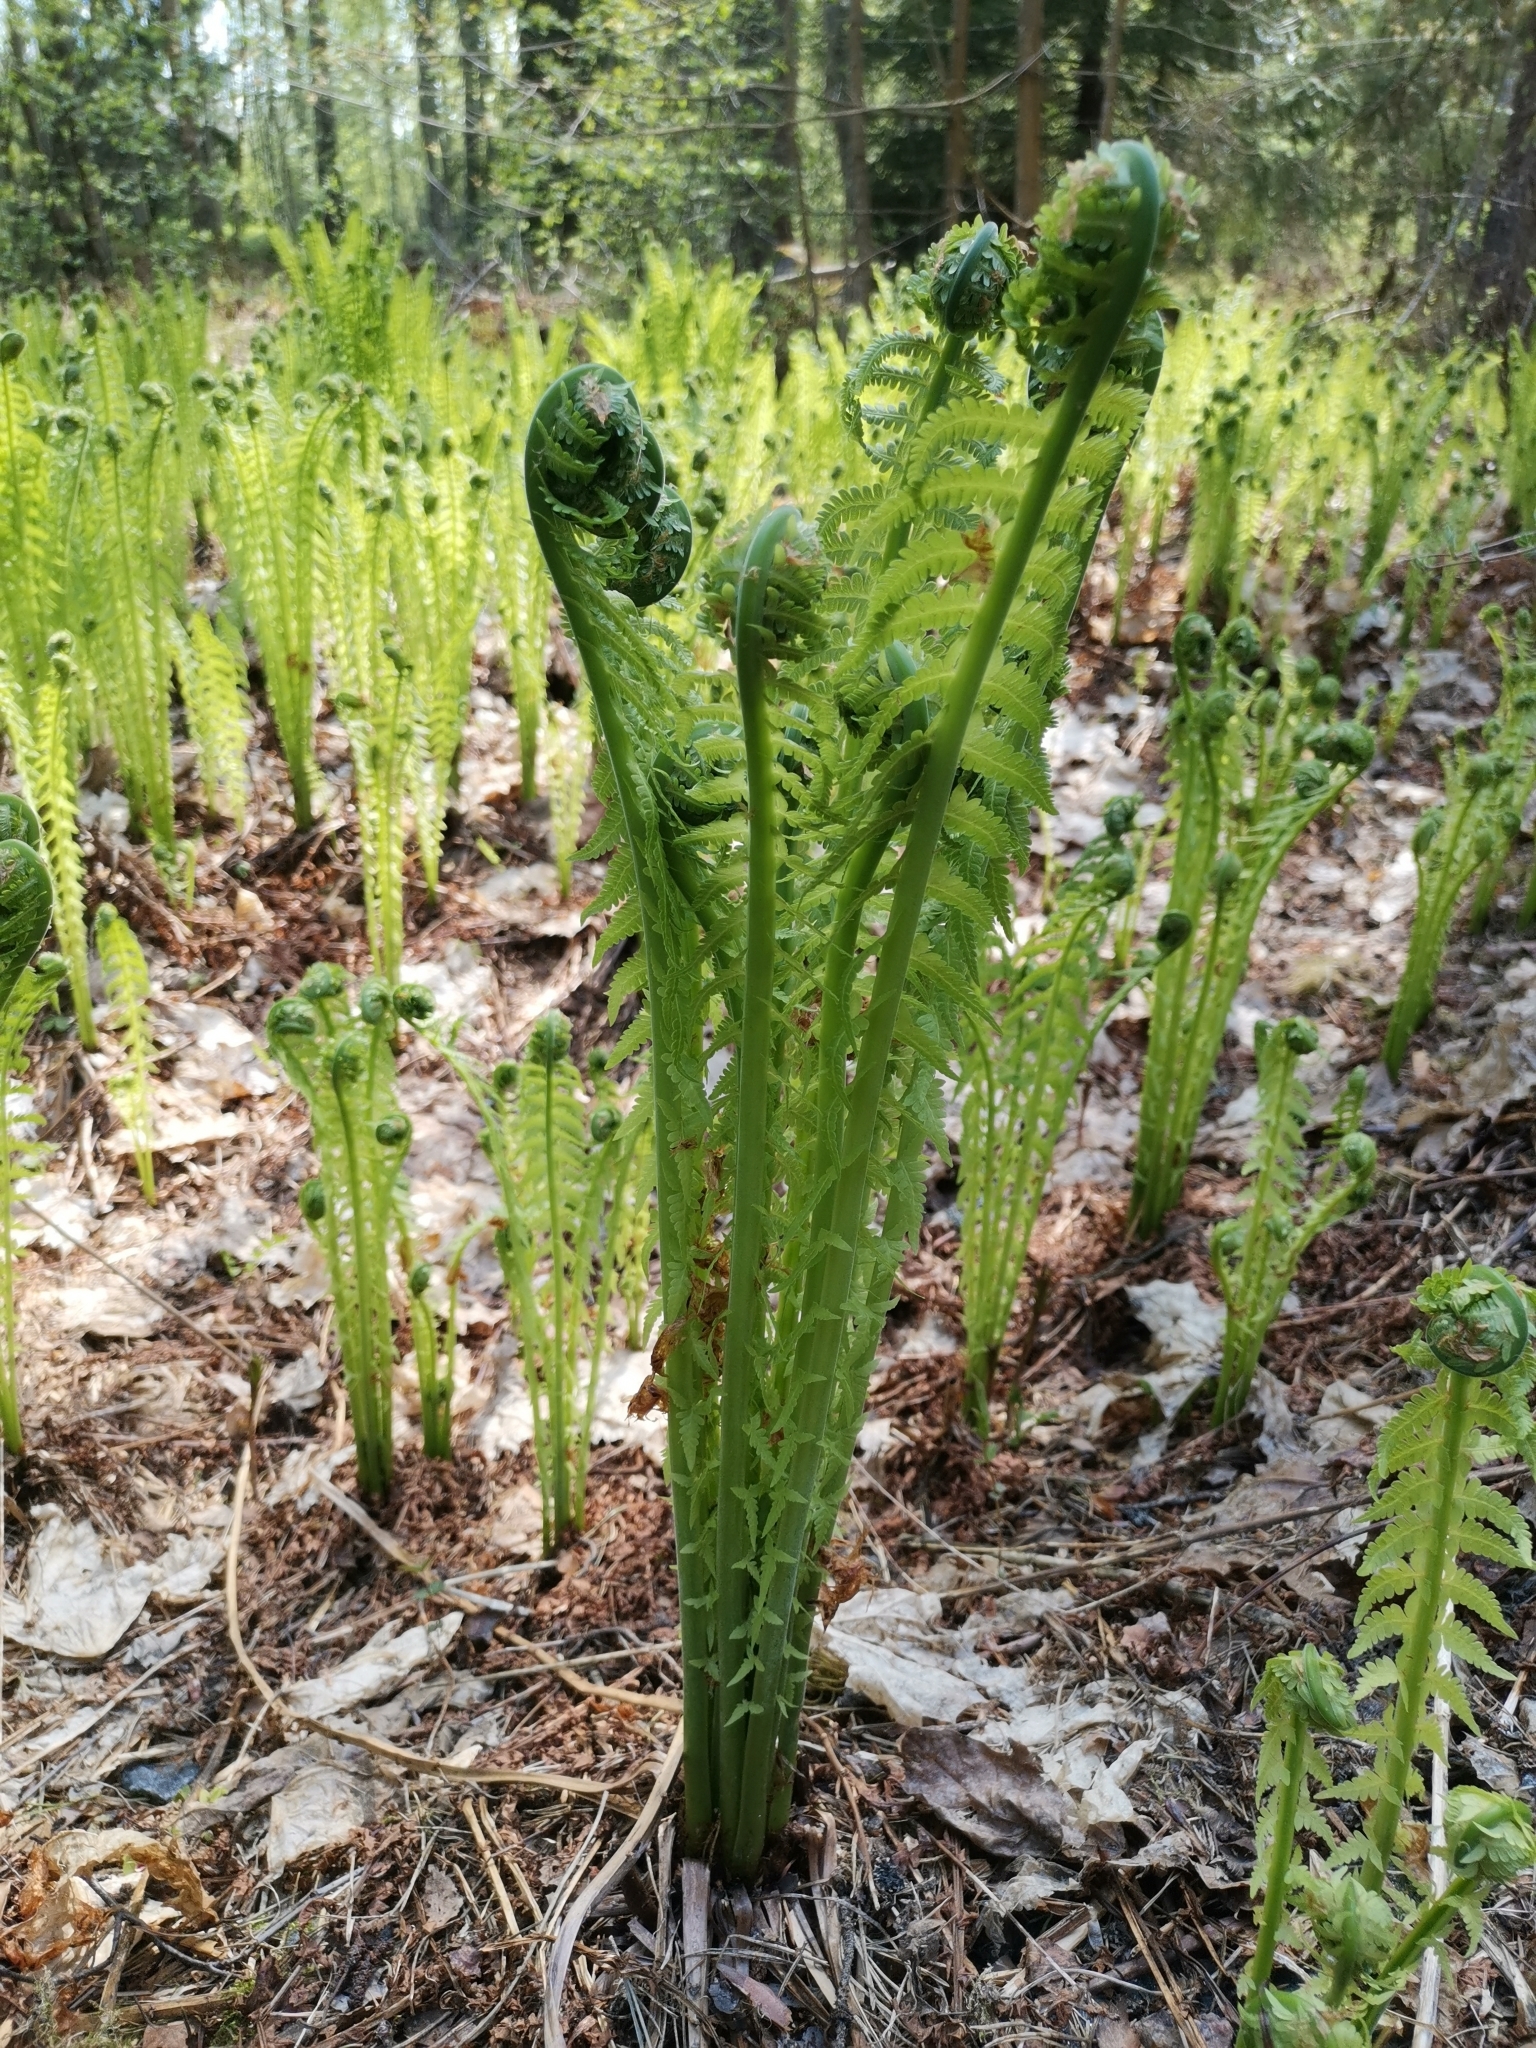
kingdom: Plantae
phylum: Tracheophyta
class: Polypodiopsida
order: Polypodiales
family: Onocleaceae
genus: Matteuccia
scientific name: Matteuccia struthiopteris
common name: Ostrich fern
